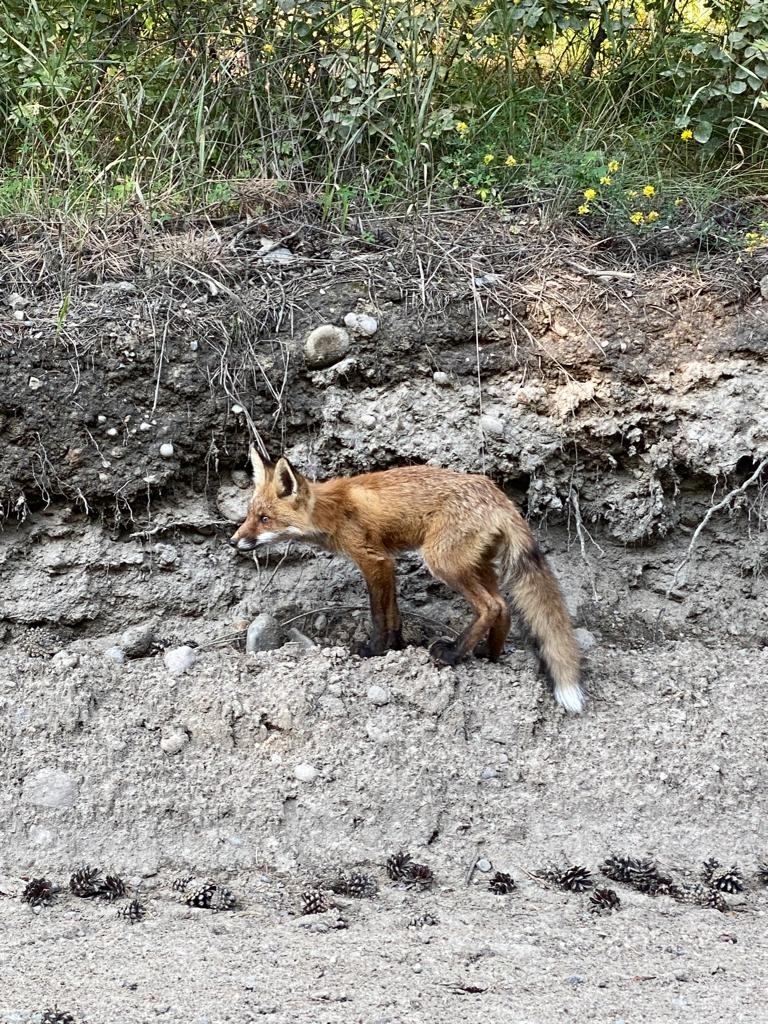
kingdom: Animalia
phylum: Chordata
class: Mammalia
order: Carnivora
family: Canidae
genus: Vulpes
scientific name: Vulpes vulpes
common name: Red fox
